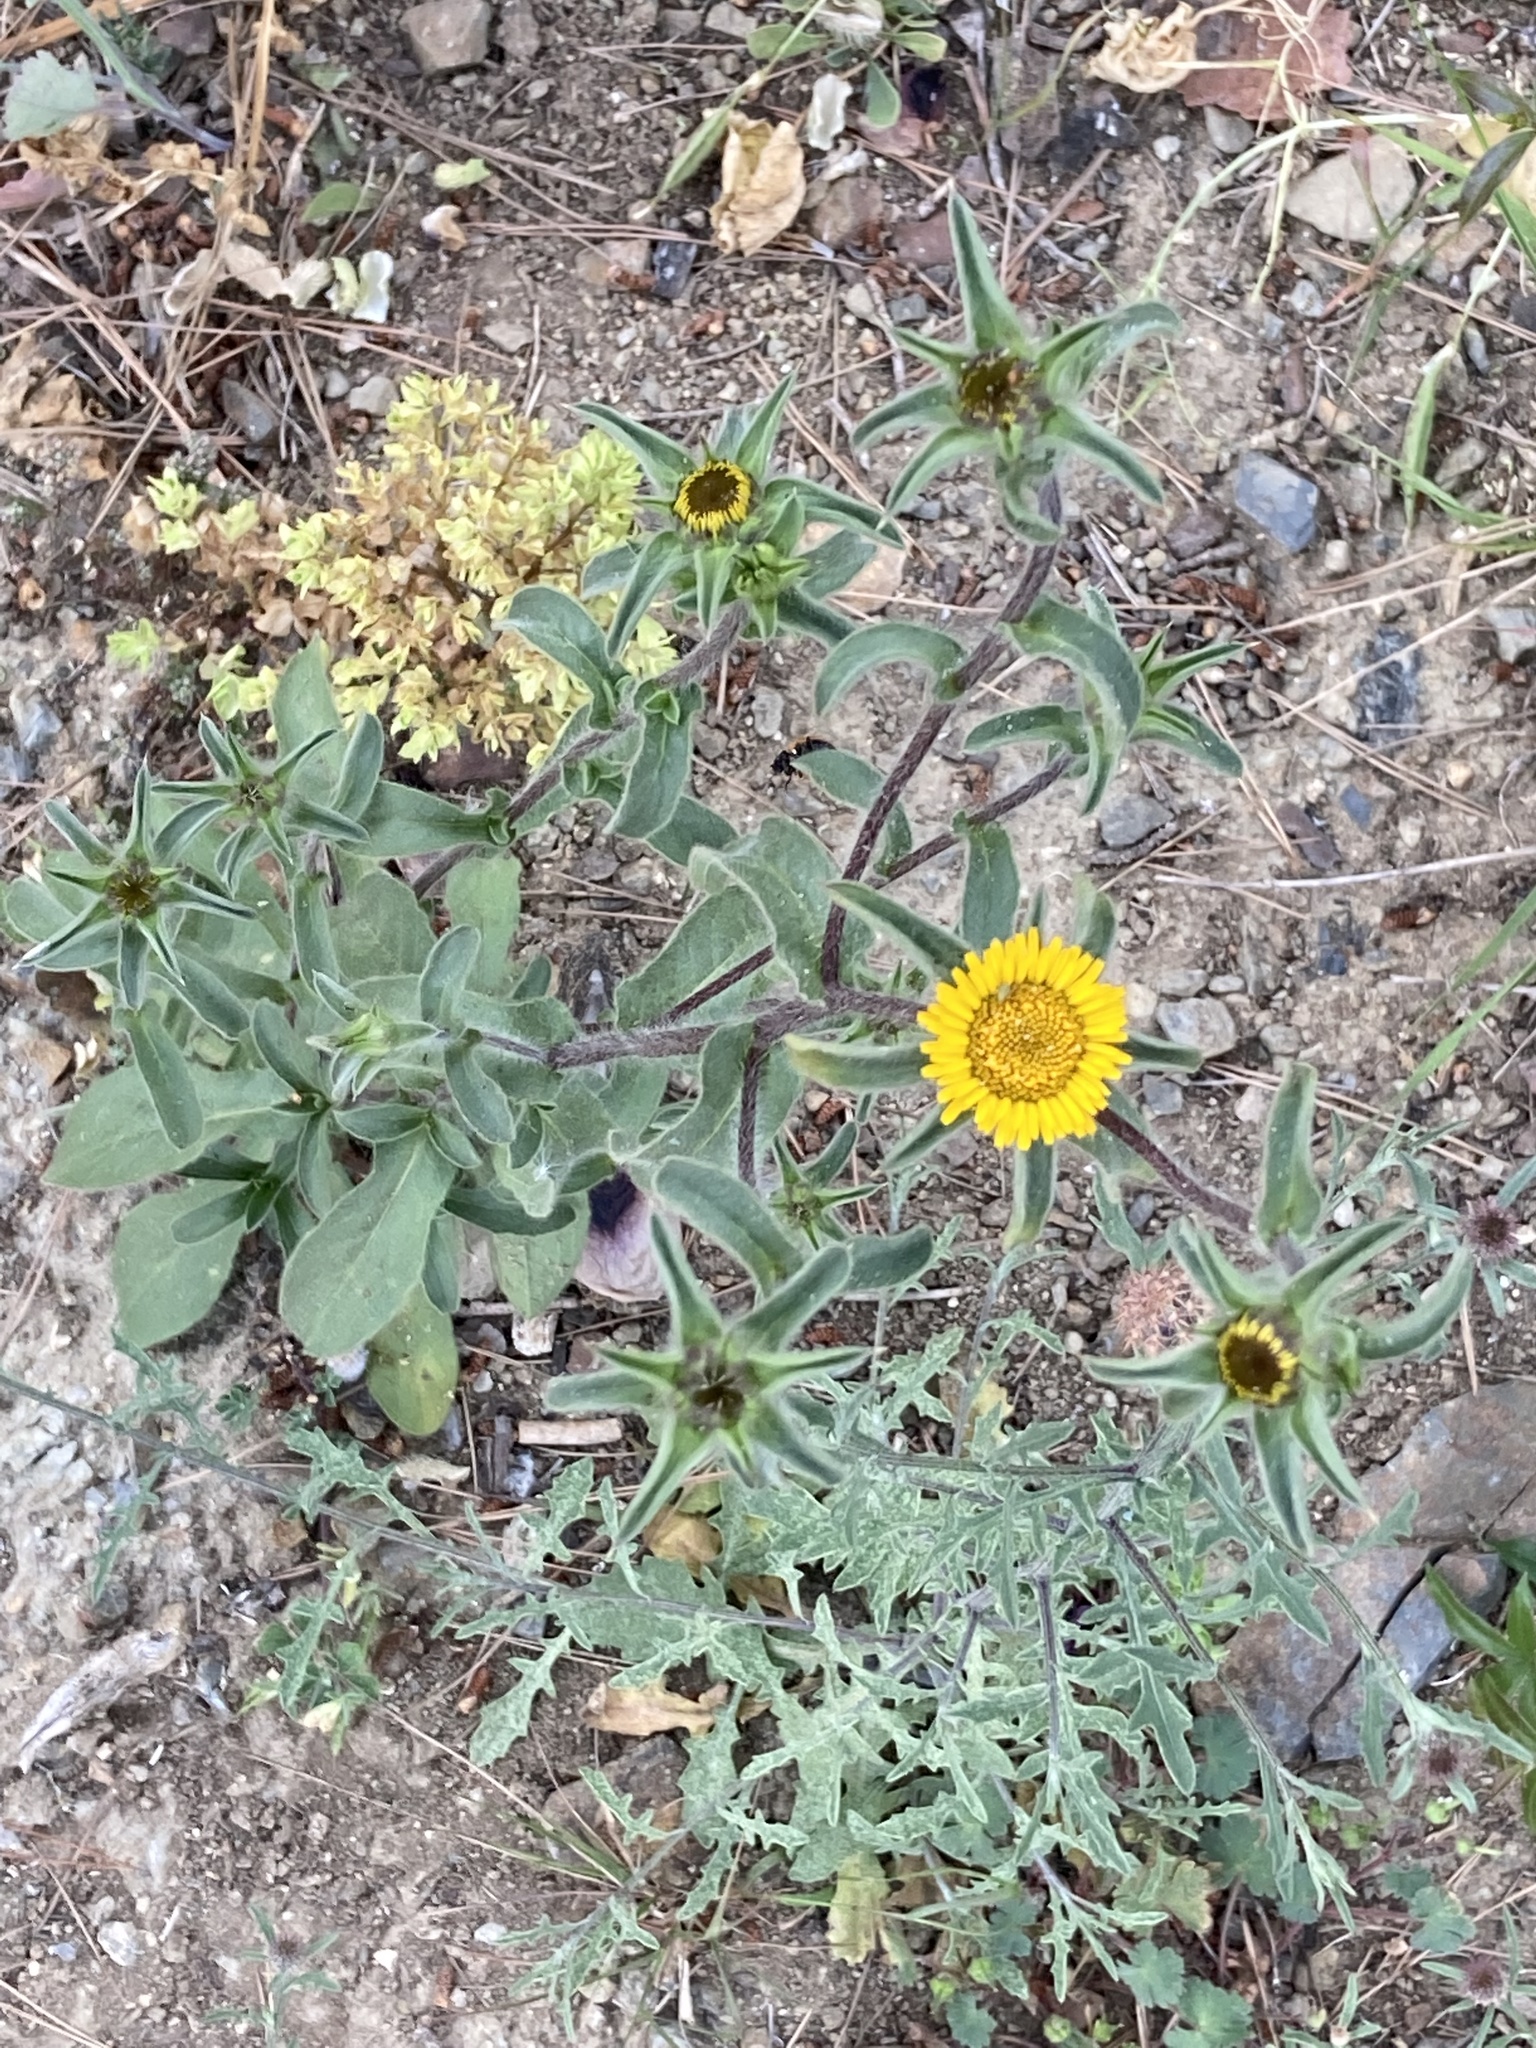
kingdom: Plantae
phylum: Tracheophyta
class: Magnoliopsida
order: Asterales
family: Asteraceae
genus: Pallenis
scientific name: Pallenis spinosa
